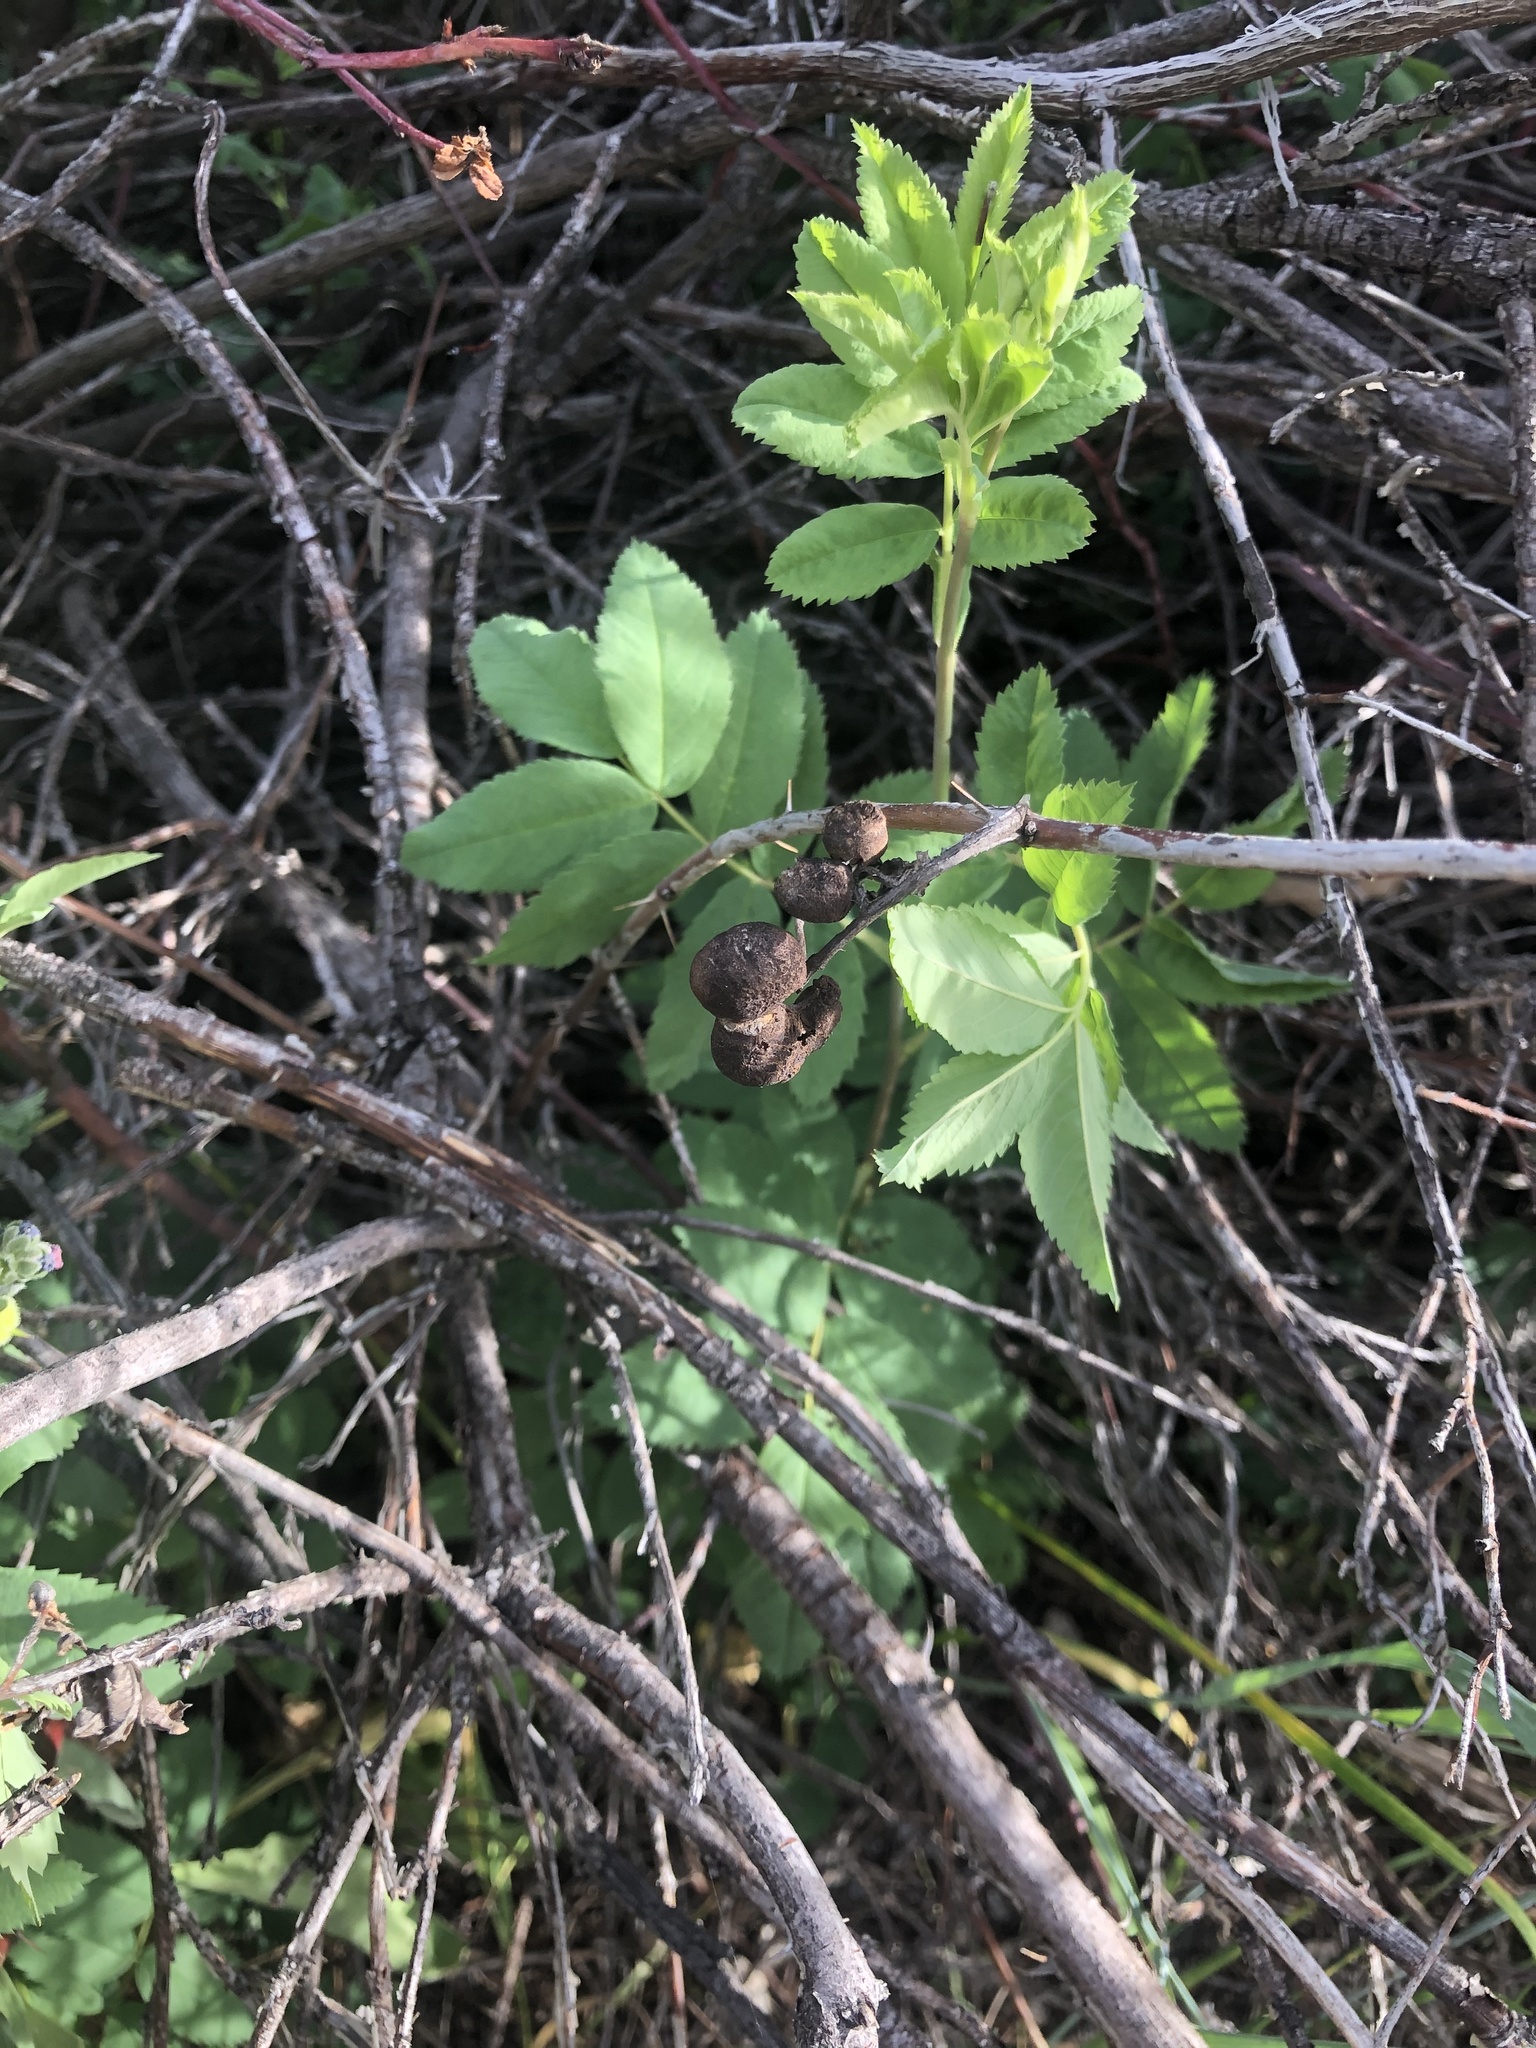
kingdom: Animalia
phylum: Arthropoda
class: Insecta
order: Hymenoptera
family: Cynipidae
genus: Diplolepis
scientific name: Diplolepis variabilis
